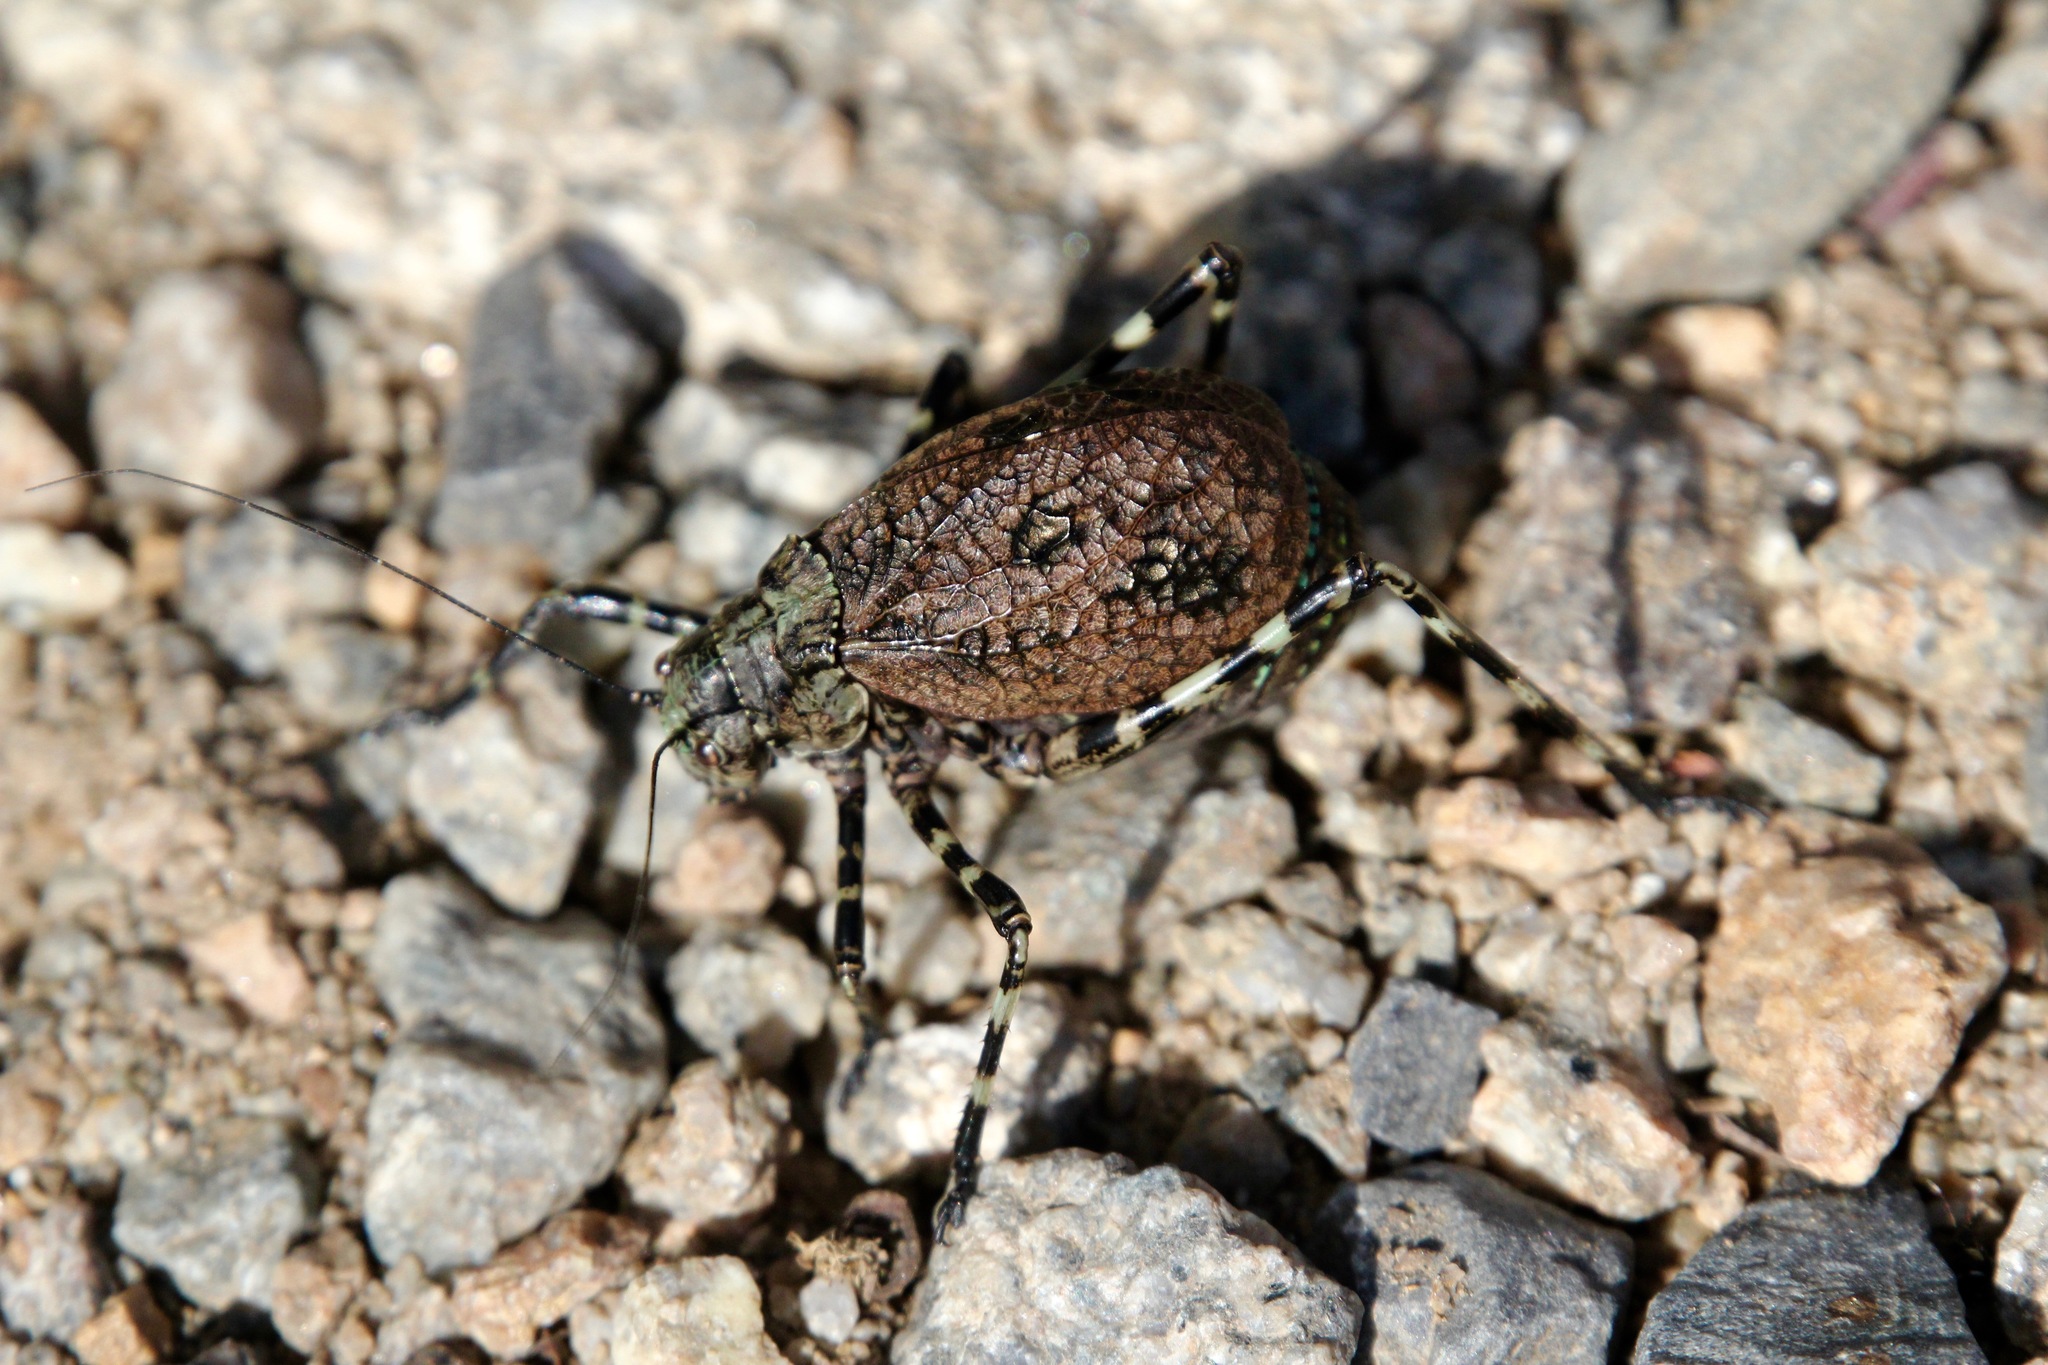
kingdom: Animalia
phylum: Arthropoda
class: Insecta
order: Orthoptera
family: Tettigoniidae
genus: Acripeza
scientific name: Acripeza reticulata
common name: Mountain katydid
